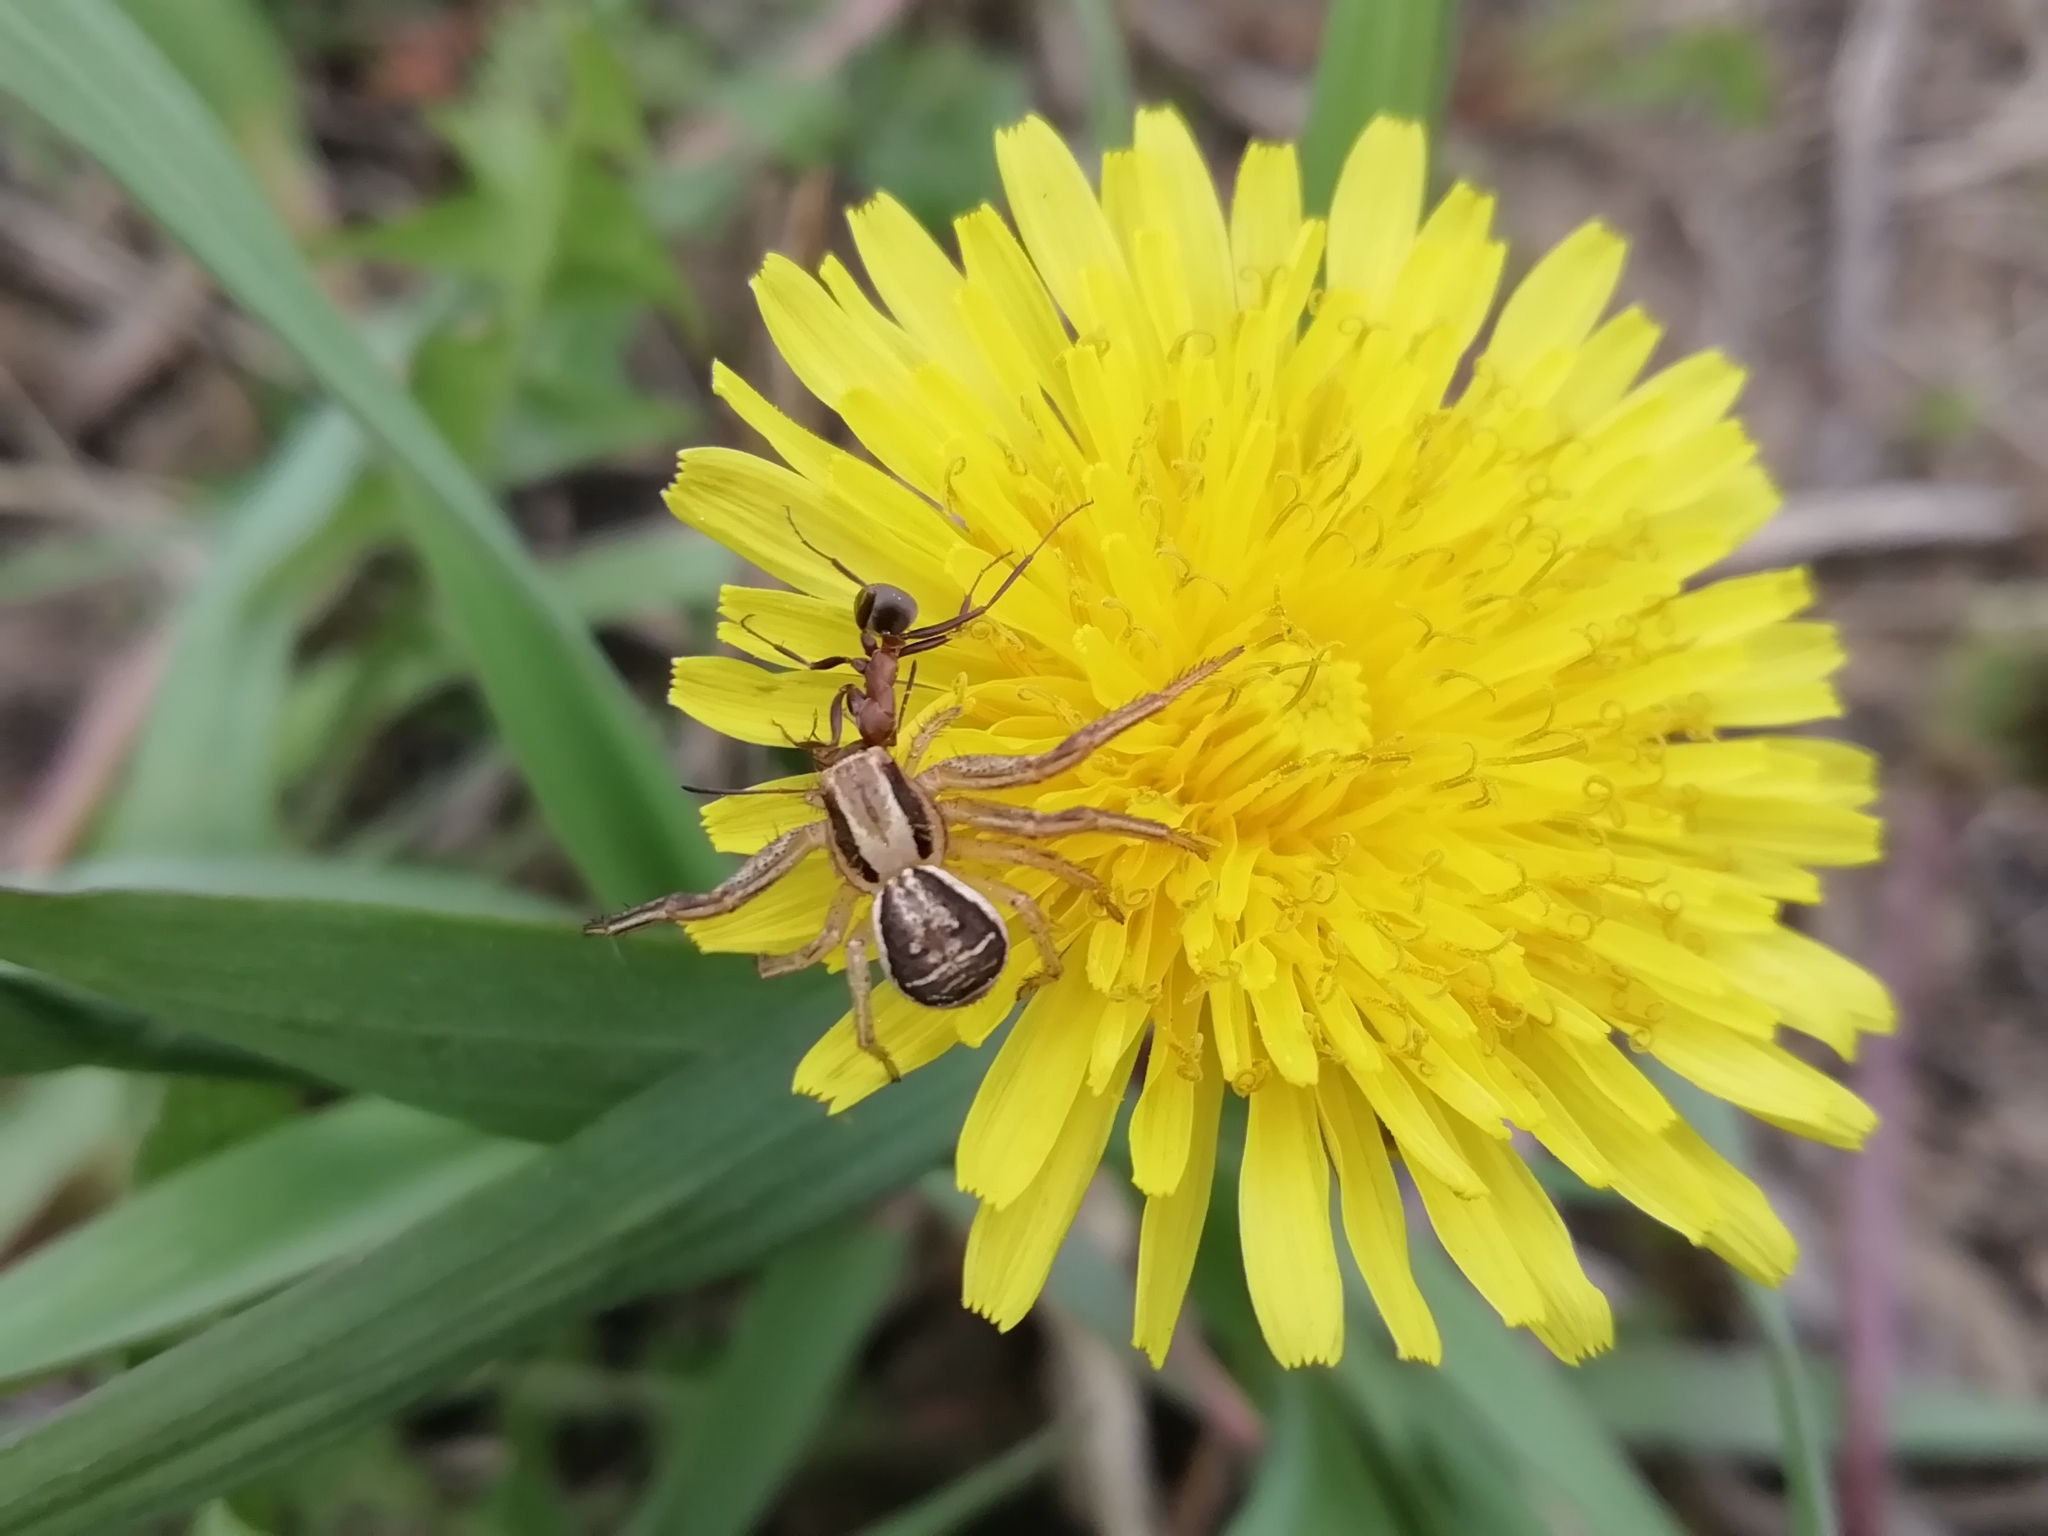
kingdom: Animalia
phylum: Arthropoda
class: Arachnida
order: Araneae
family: Thomisidae
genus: Xysticus
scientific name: Xysticus ulmi
